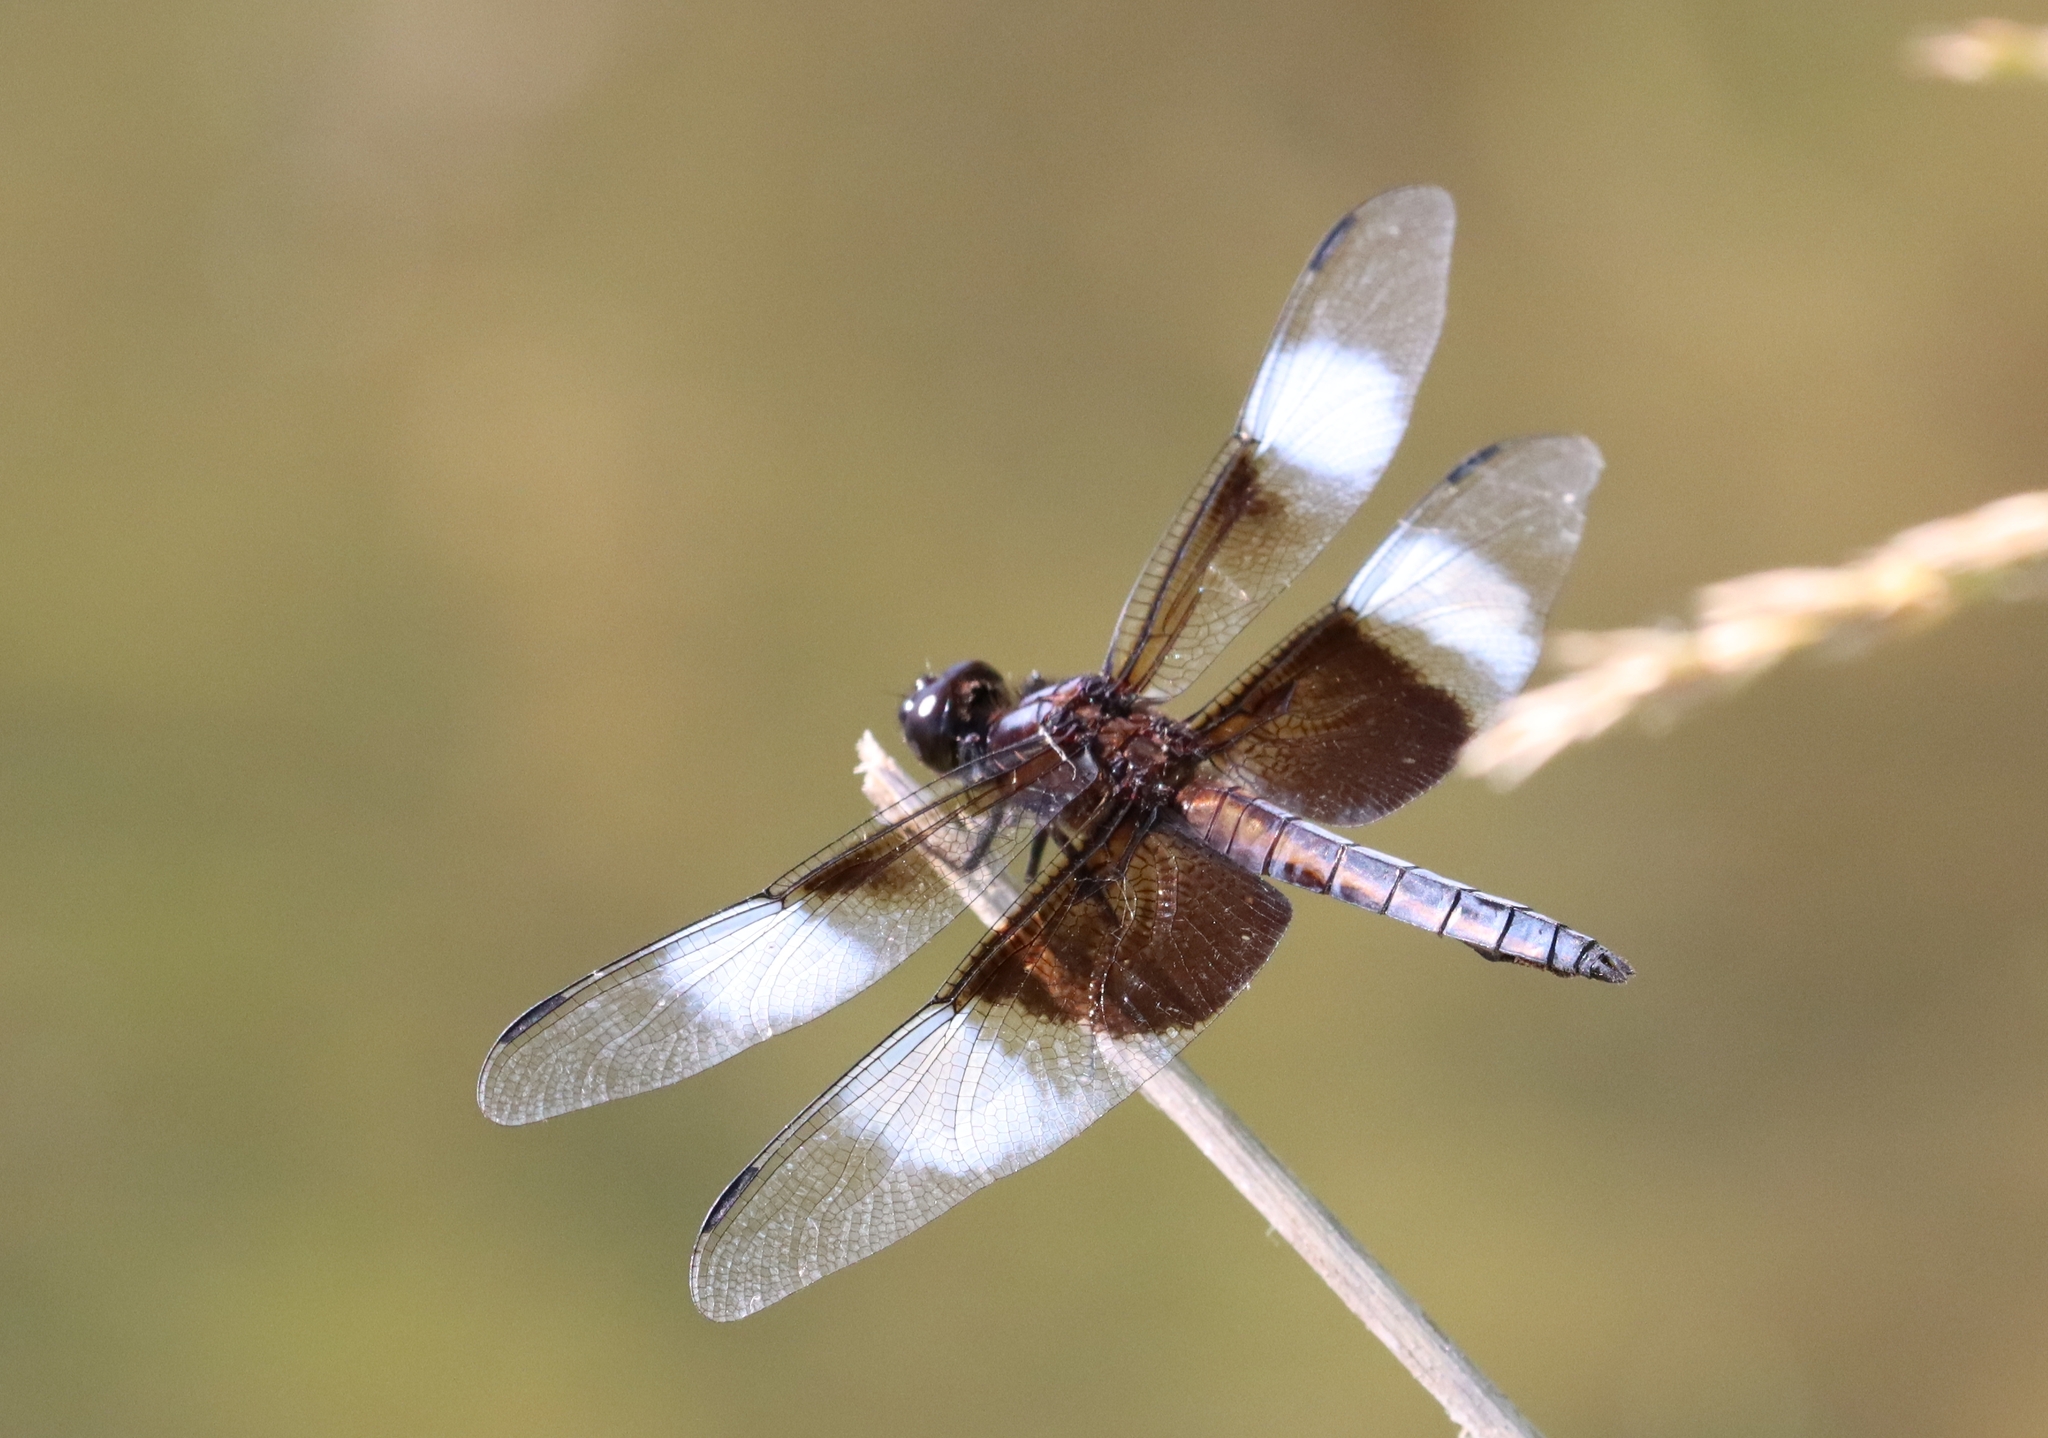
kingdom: Animalia
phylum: Arthropoda
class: Insecta
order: Odonata
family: Libellulidae
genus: Libellula
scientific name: Libellula luctuosa
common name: Widow skimmer
